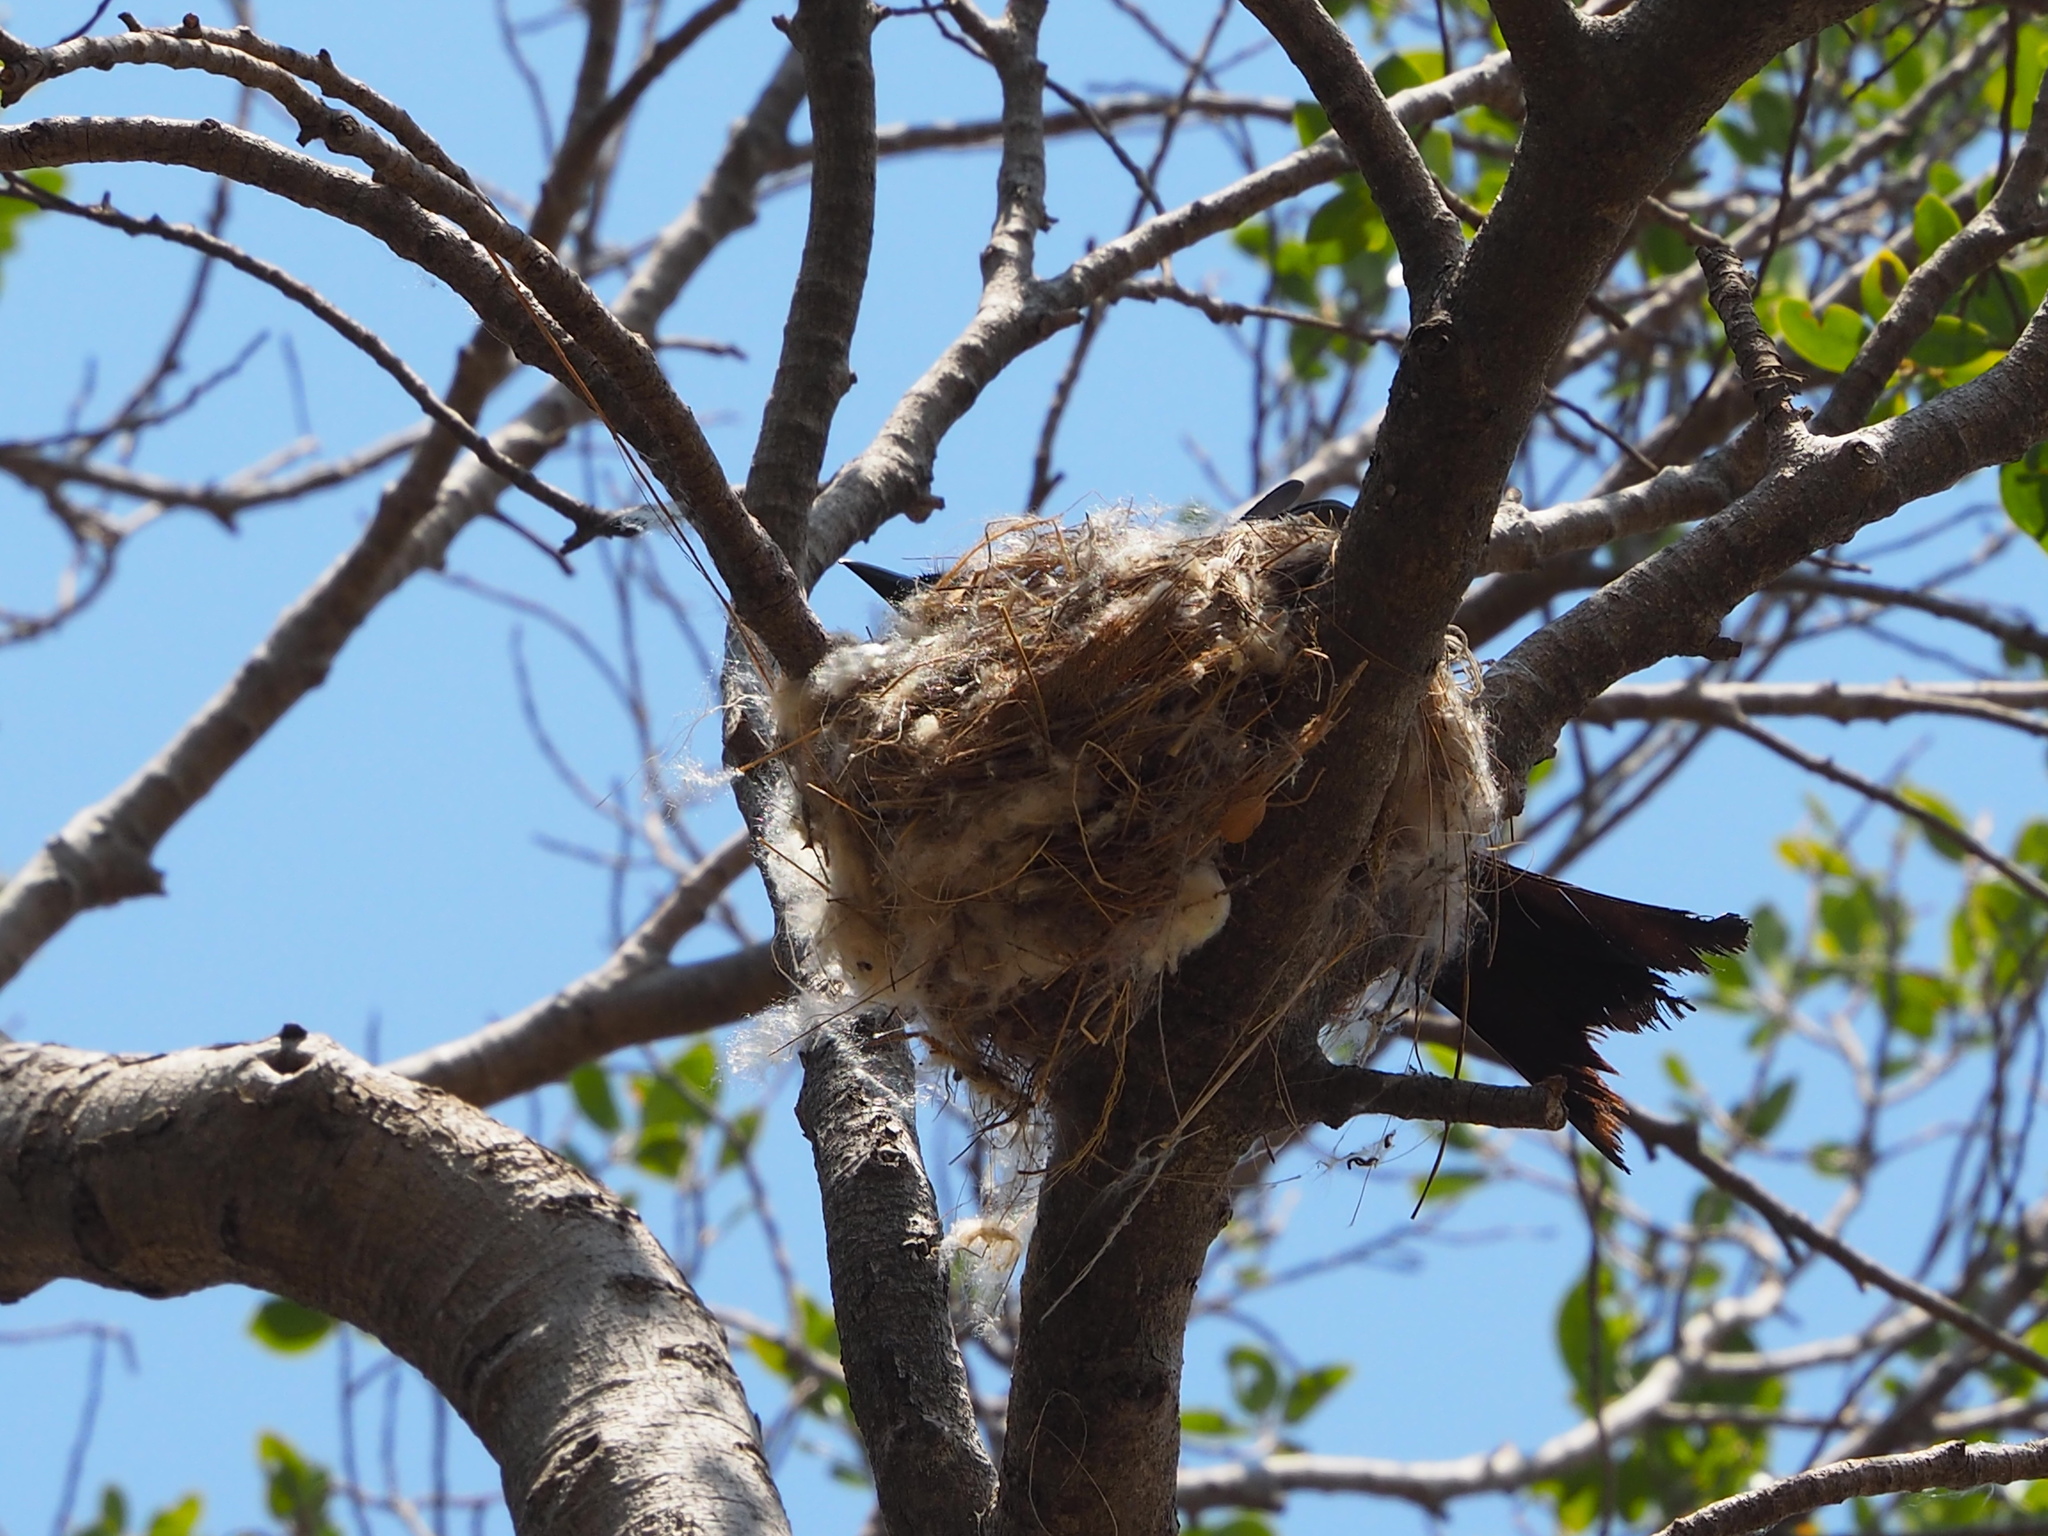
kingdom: Animalia
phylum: Chordata
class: Aves
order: Passeriformes
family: Dicruridae
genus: Dicrurus
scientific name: Dicrurus macrocercus
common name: Black drongo
